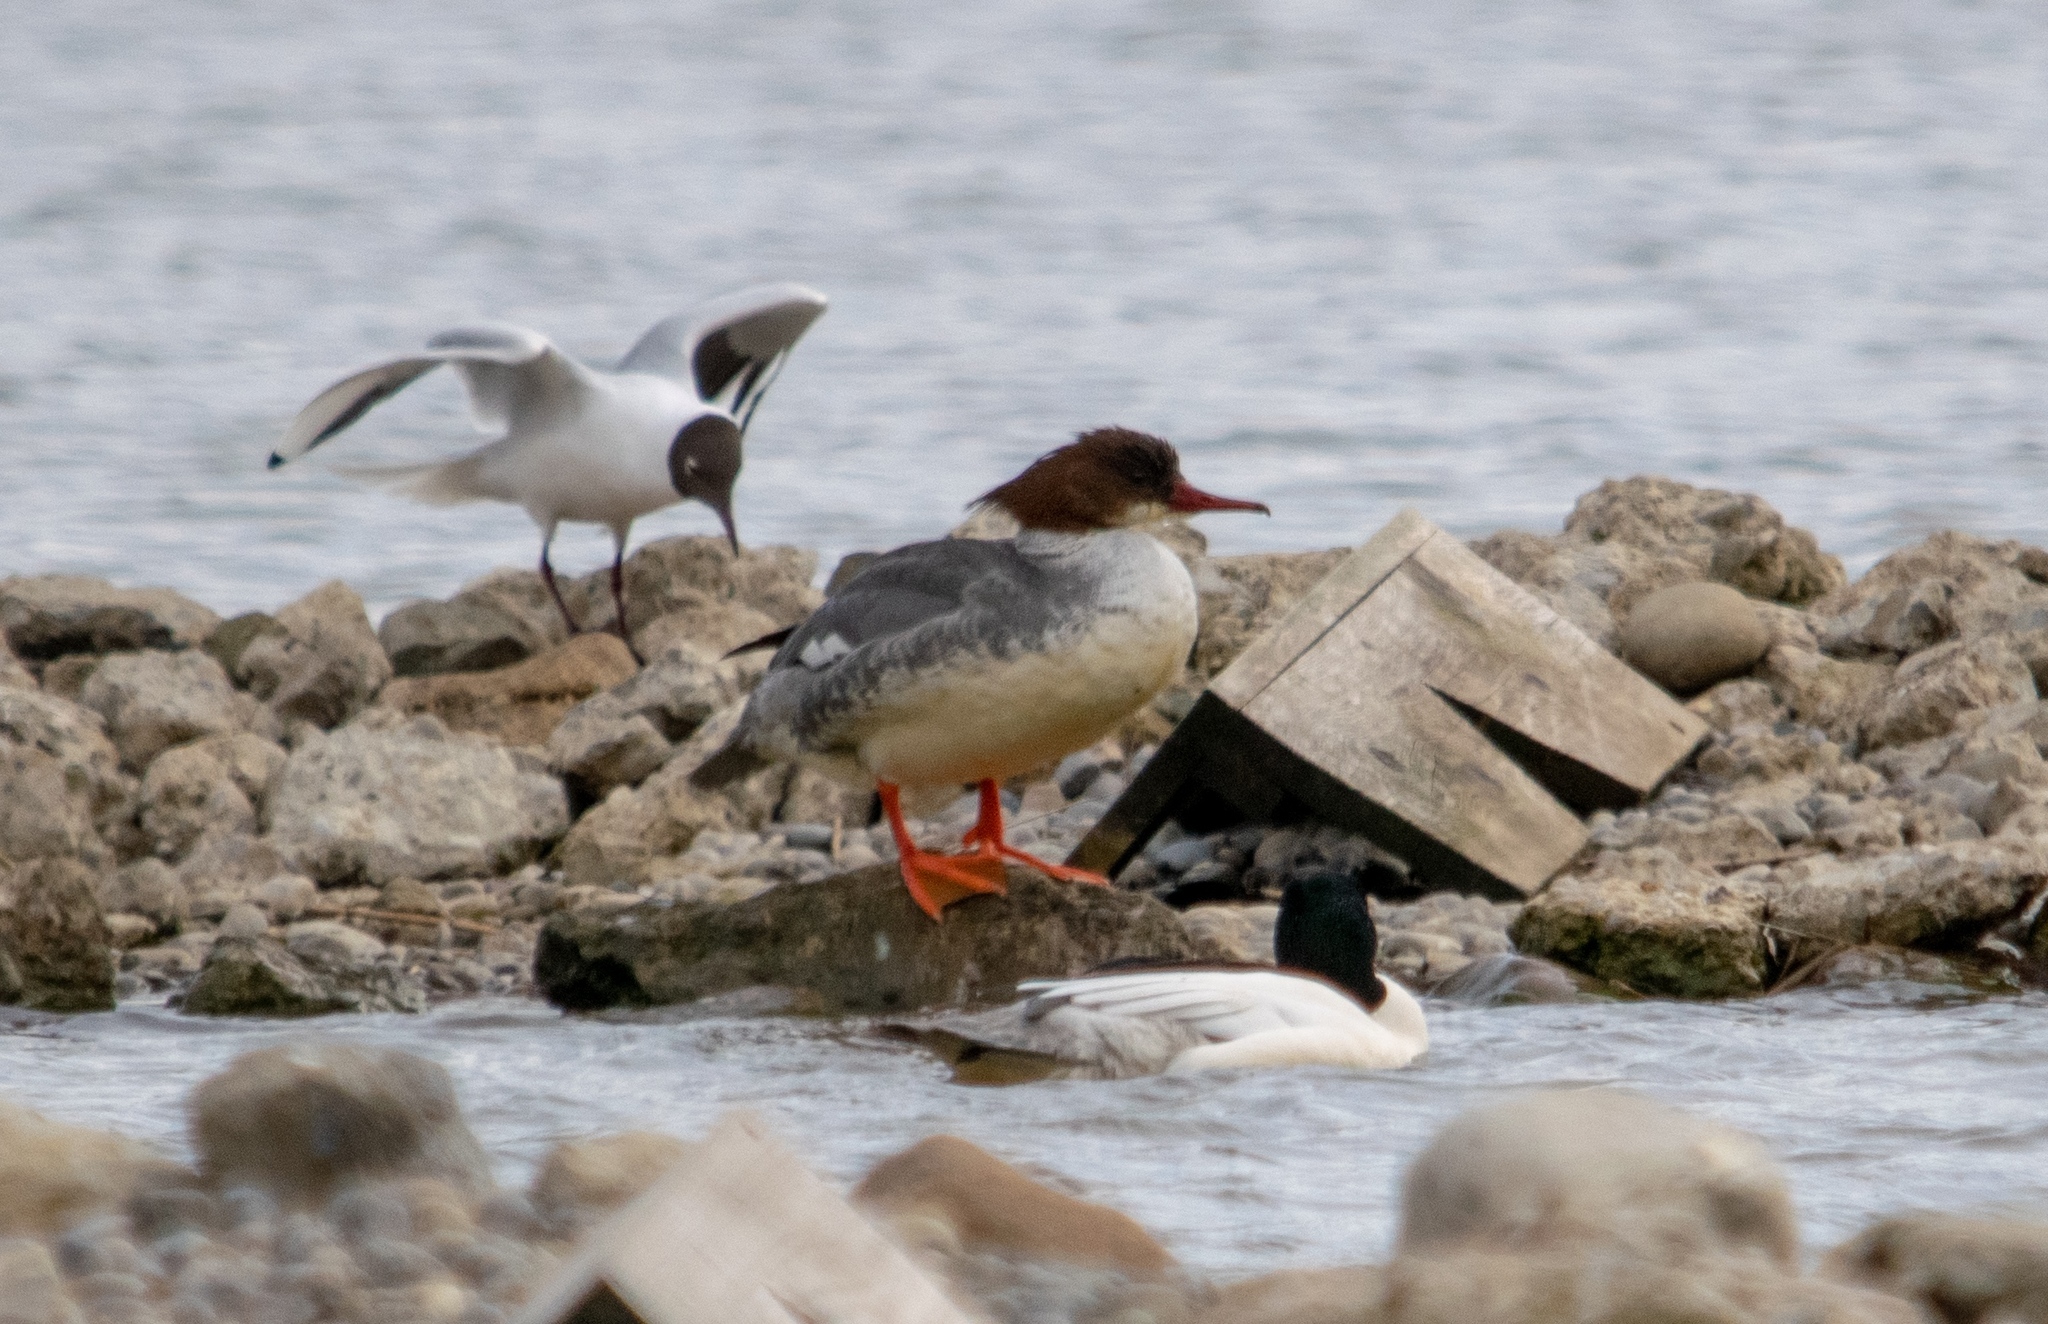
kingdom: Animalia
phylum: Chordata
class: Aves
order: Anseriformes
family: Anatidae
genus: Mergus
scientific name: Mergus merganser
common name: Common merganser
